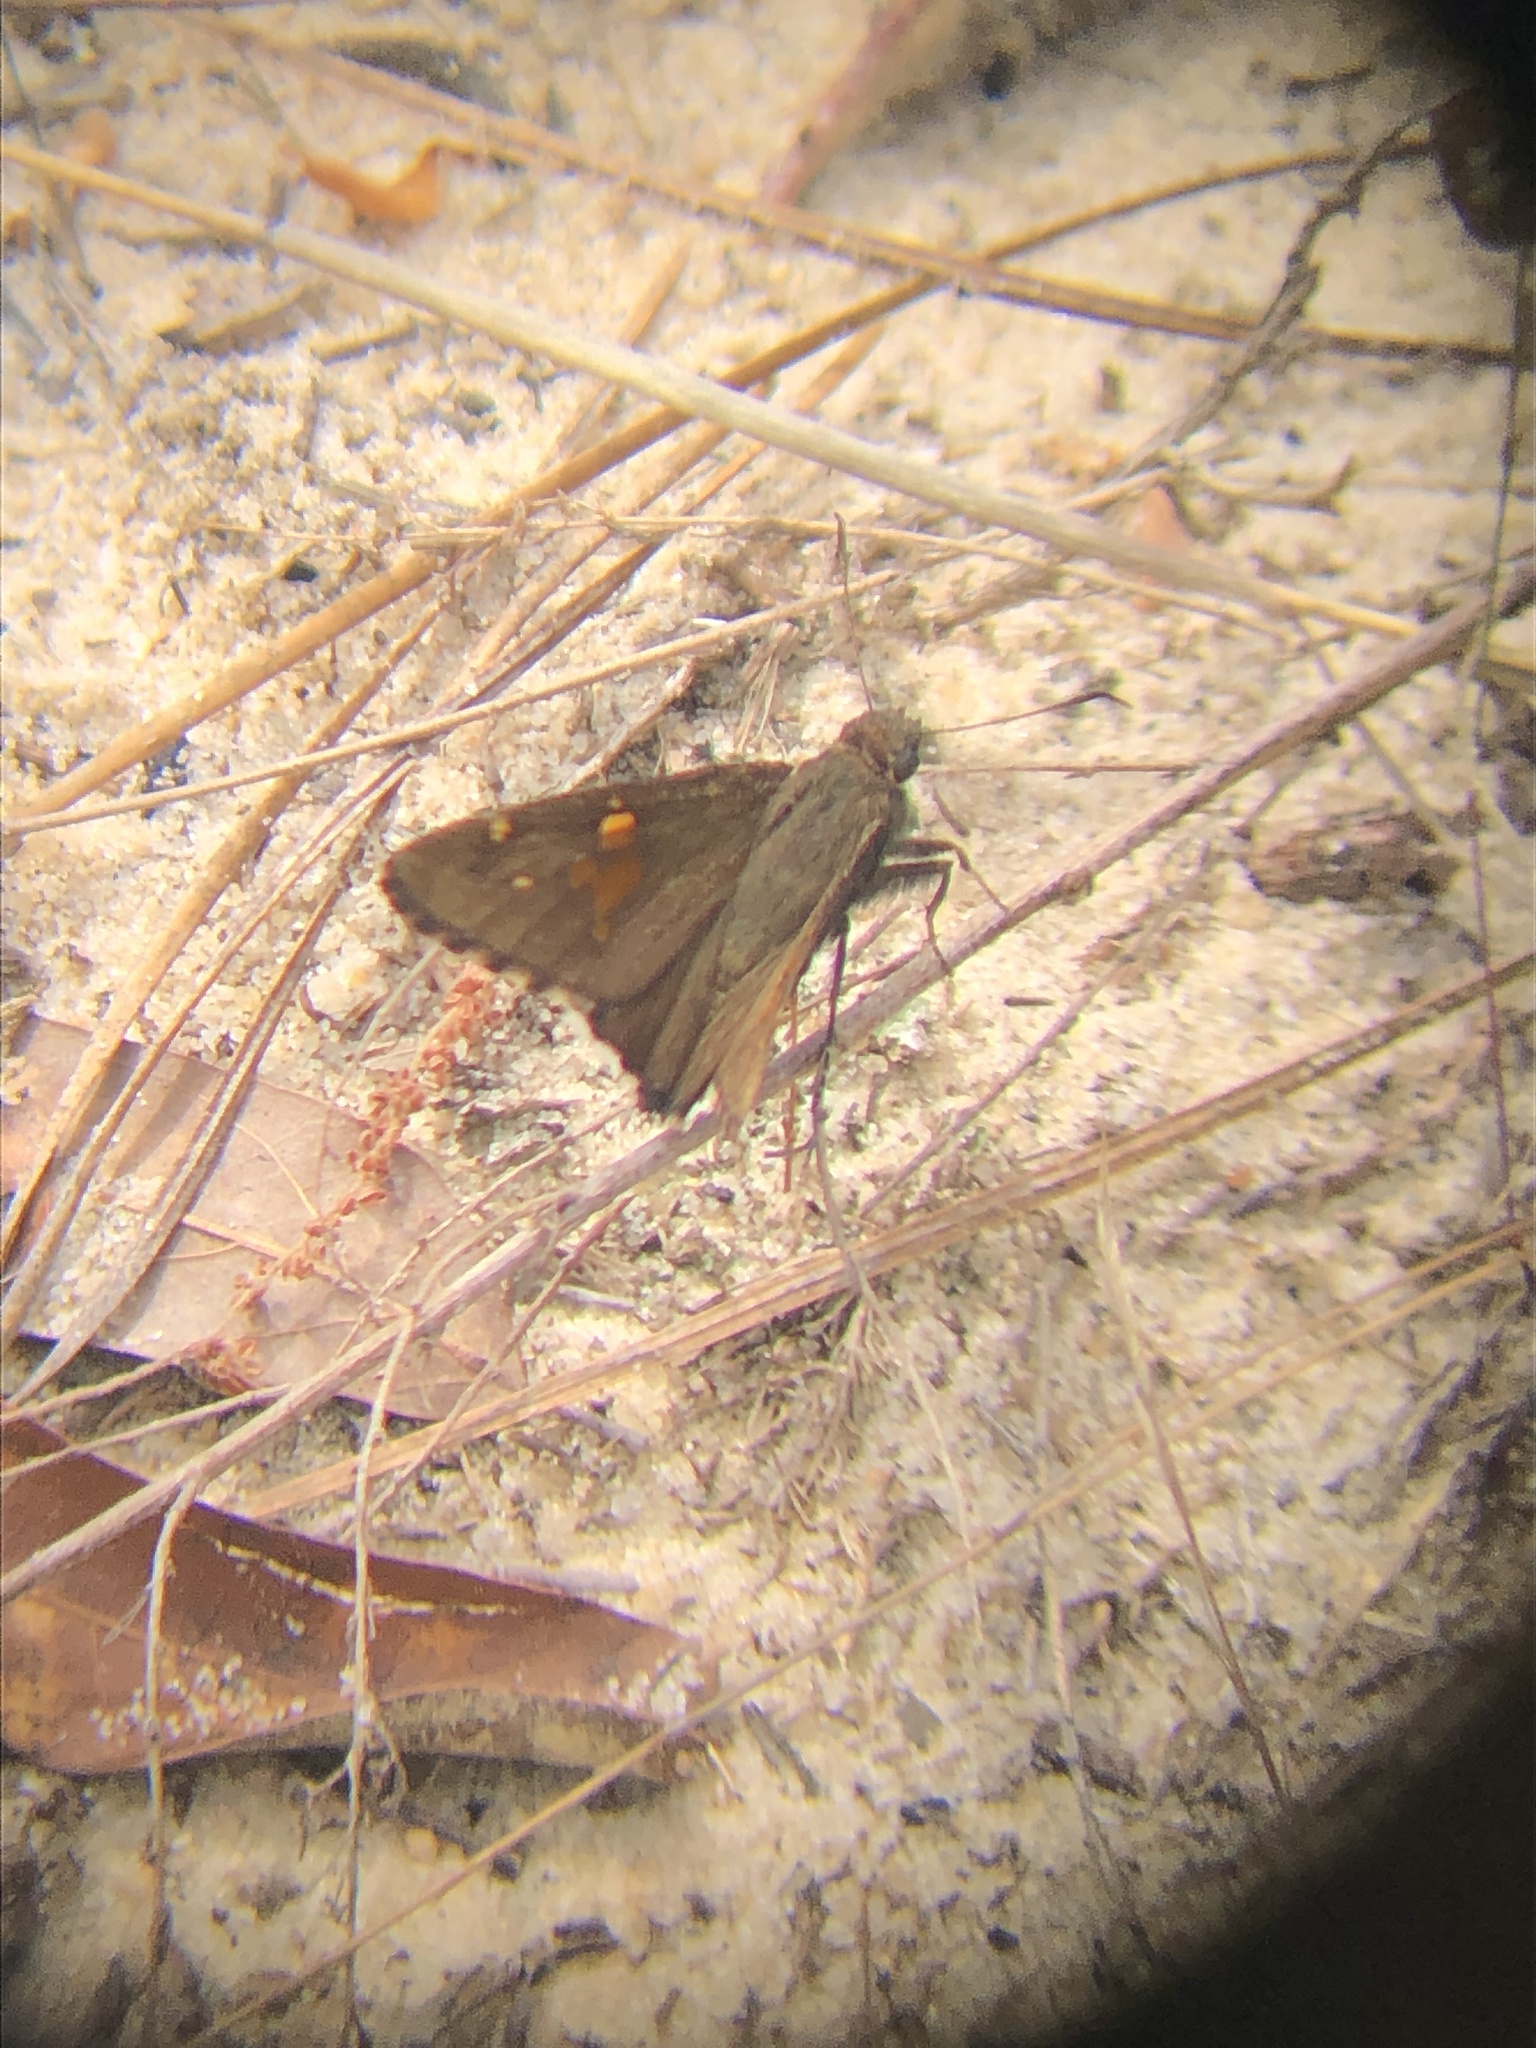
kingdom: Animalia
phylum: Arthropoda
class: Insecta
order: Lepidoptera
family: Hesperiidae
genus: Thorybes
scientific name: Thorybes lyciades
